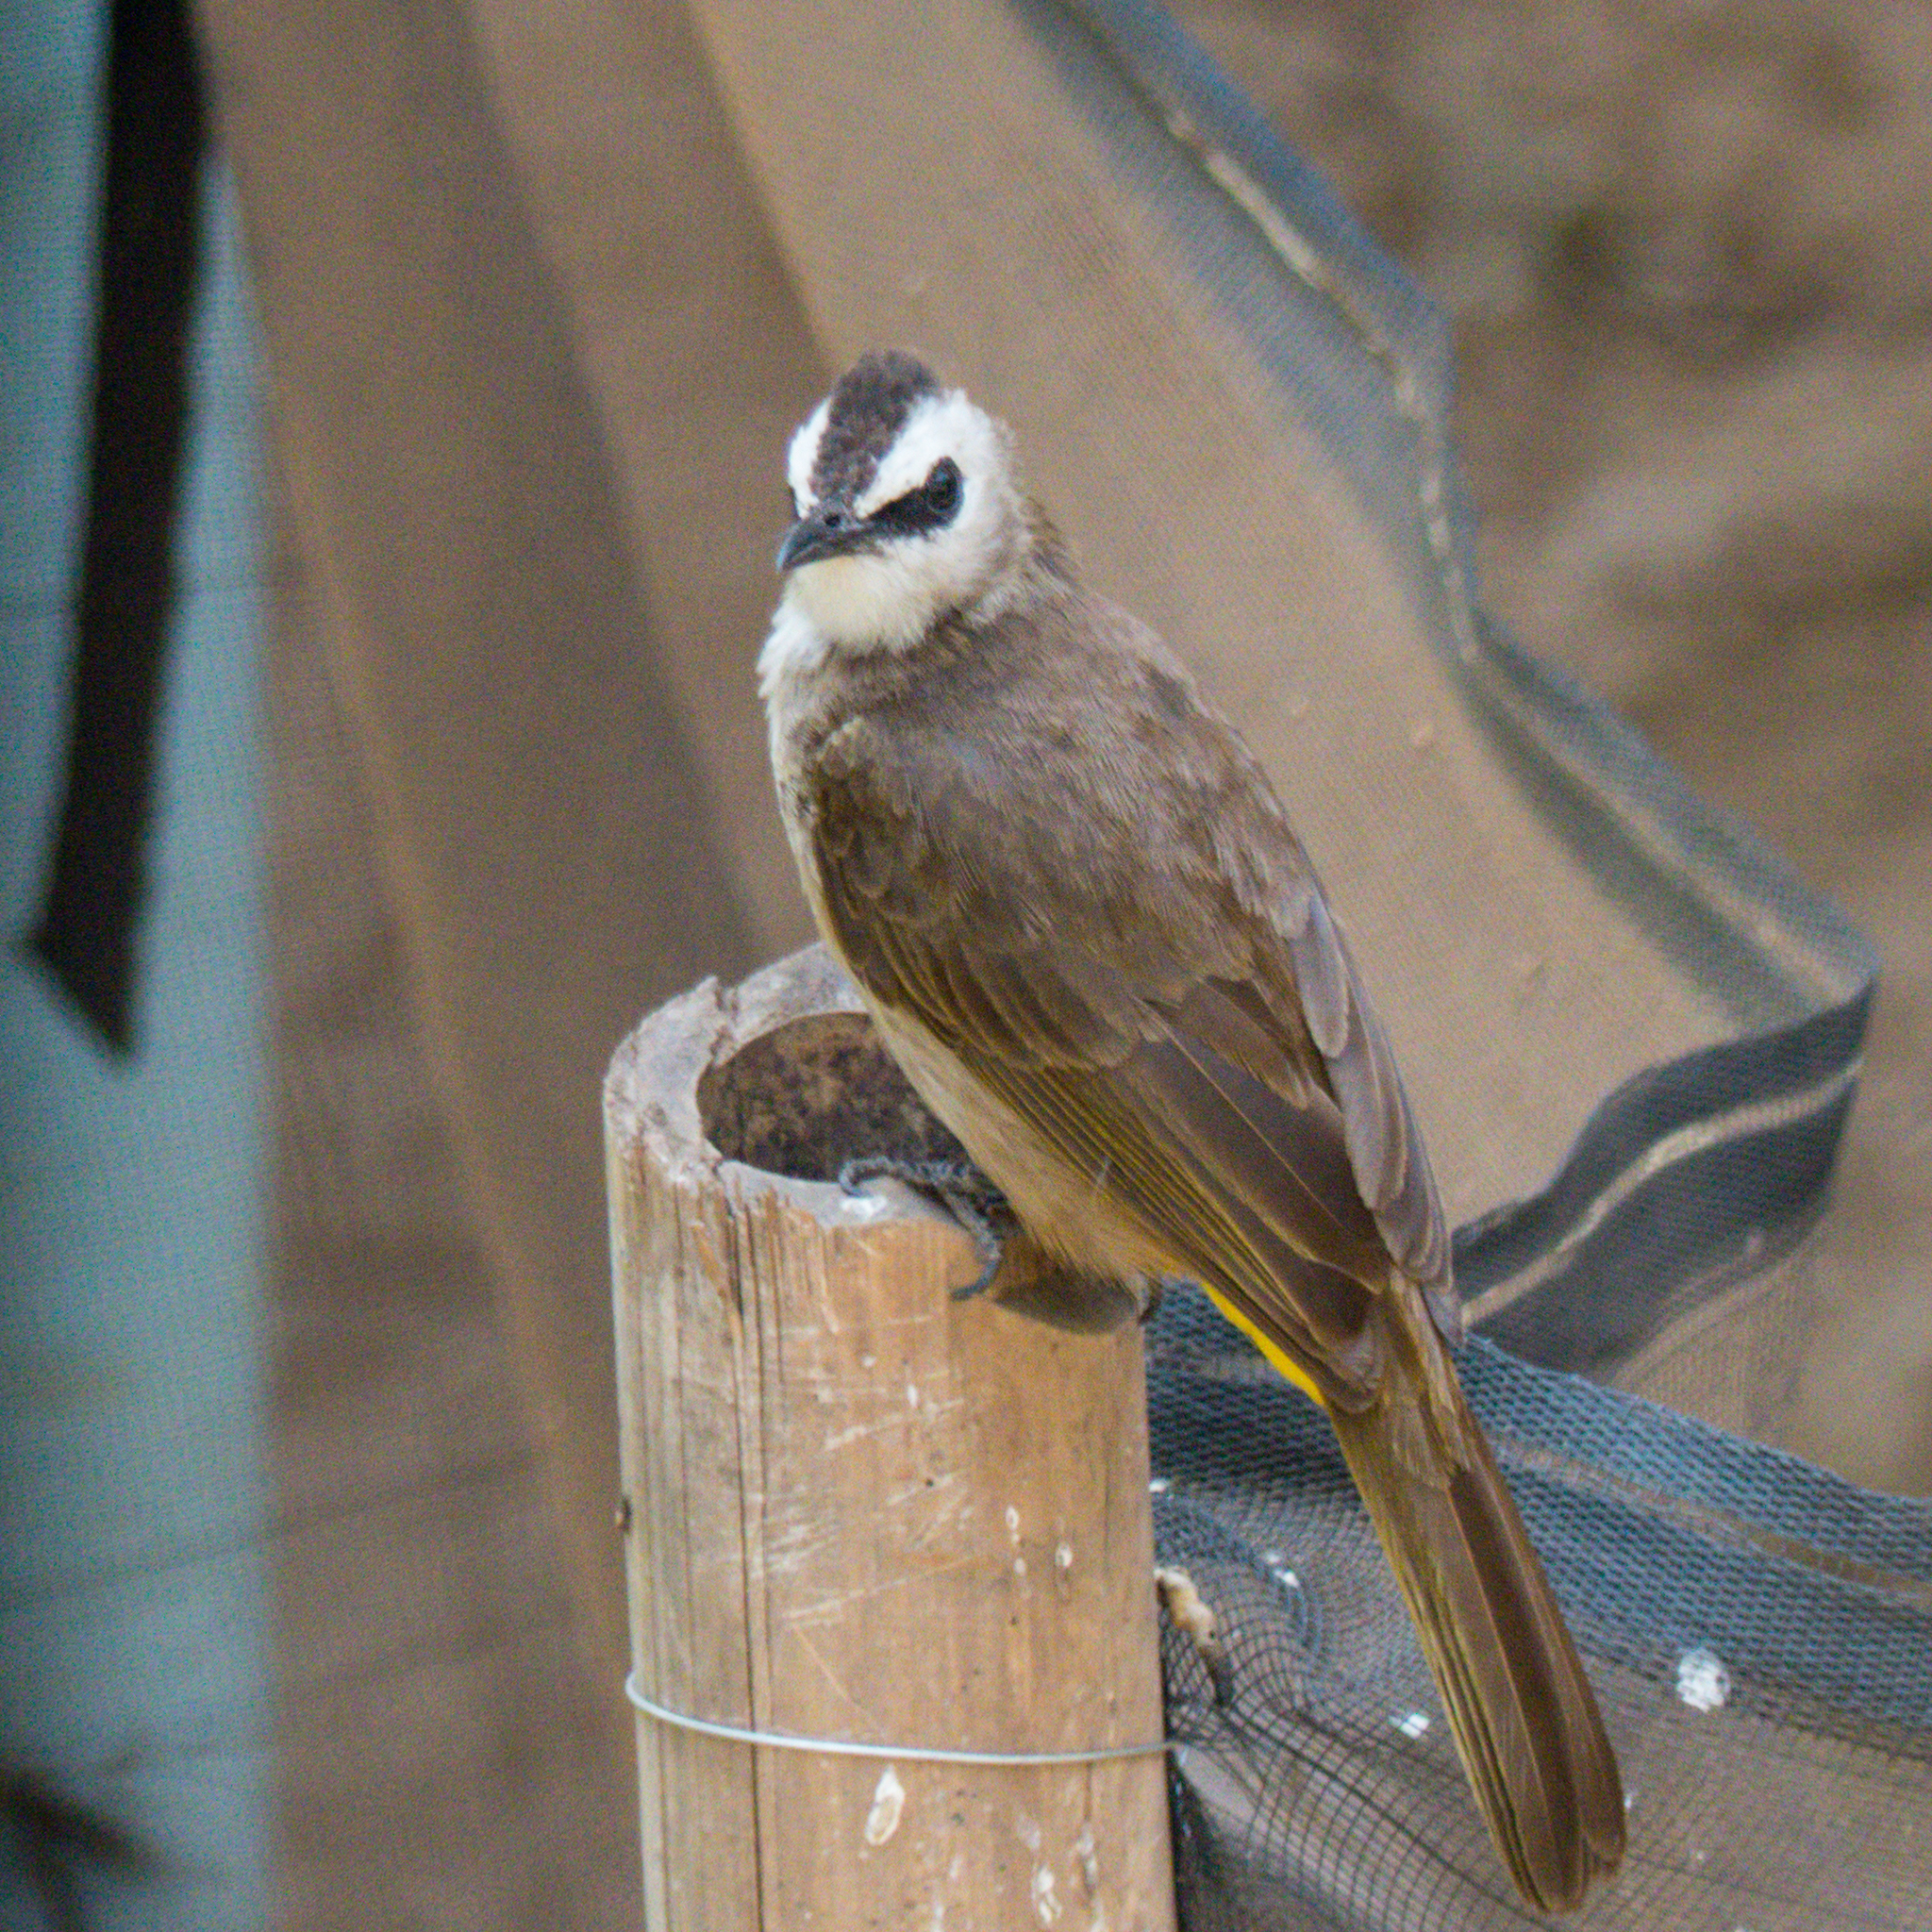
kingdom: Animalia
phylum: Chordata
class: Aves
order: Passeriformes
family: Pycnonotidae
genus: Pycnonotus
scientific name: Pycnonotus goiavier
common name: Yellow-vented bulbul
